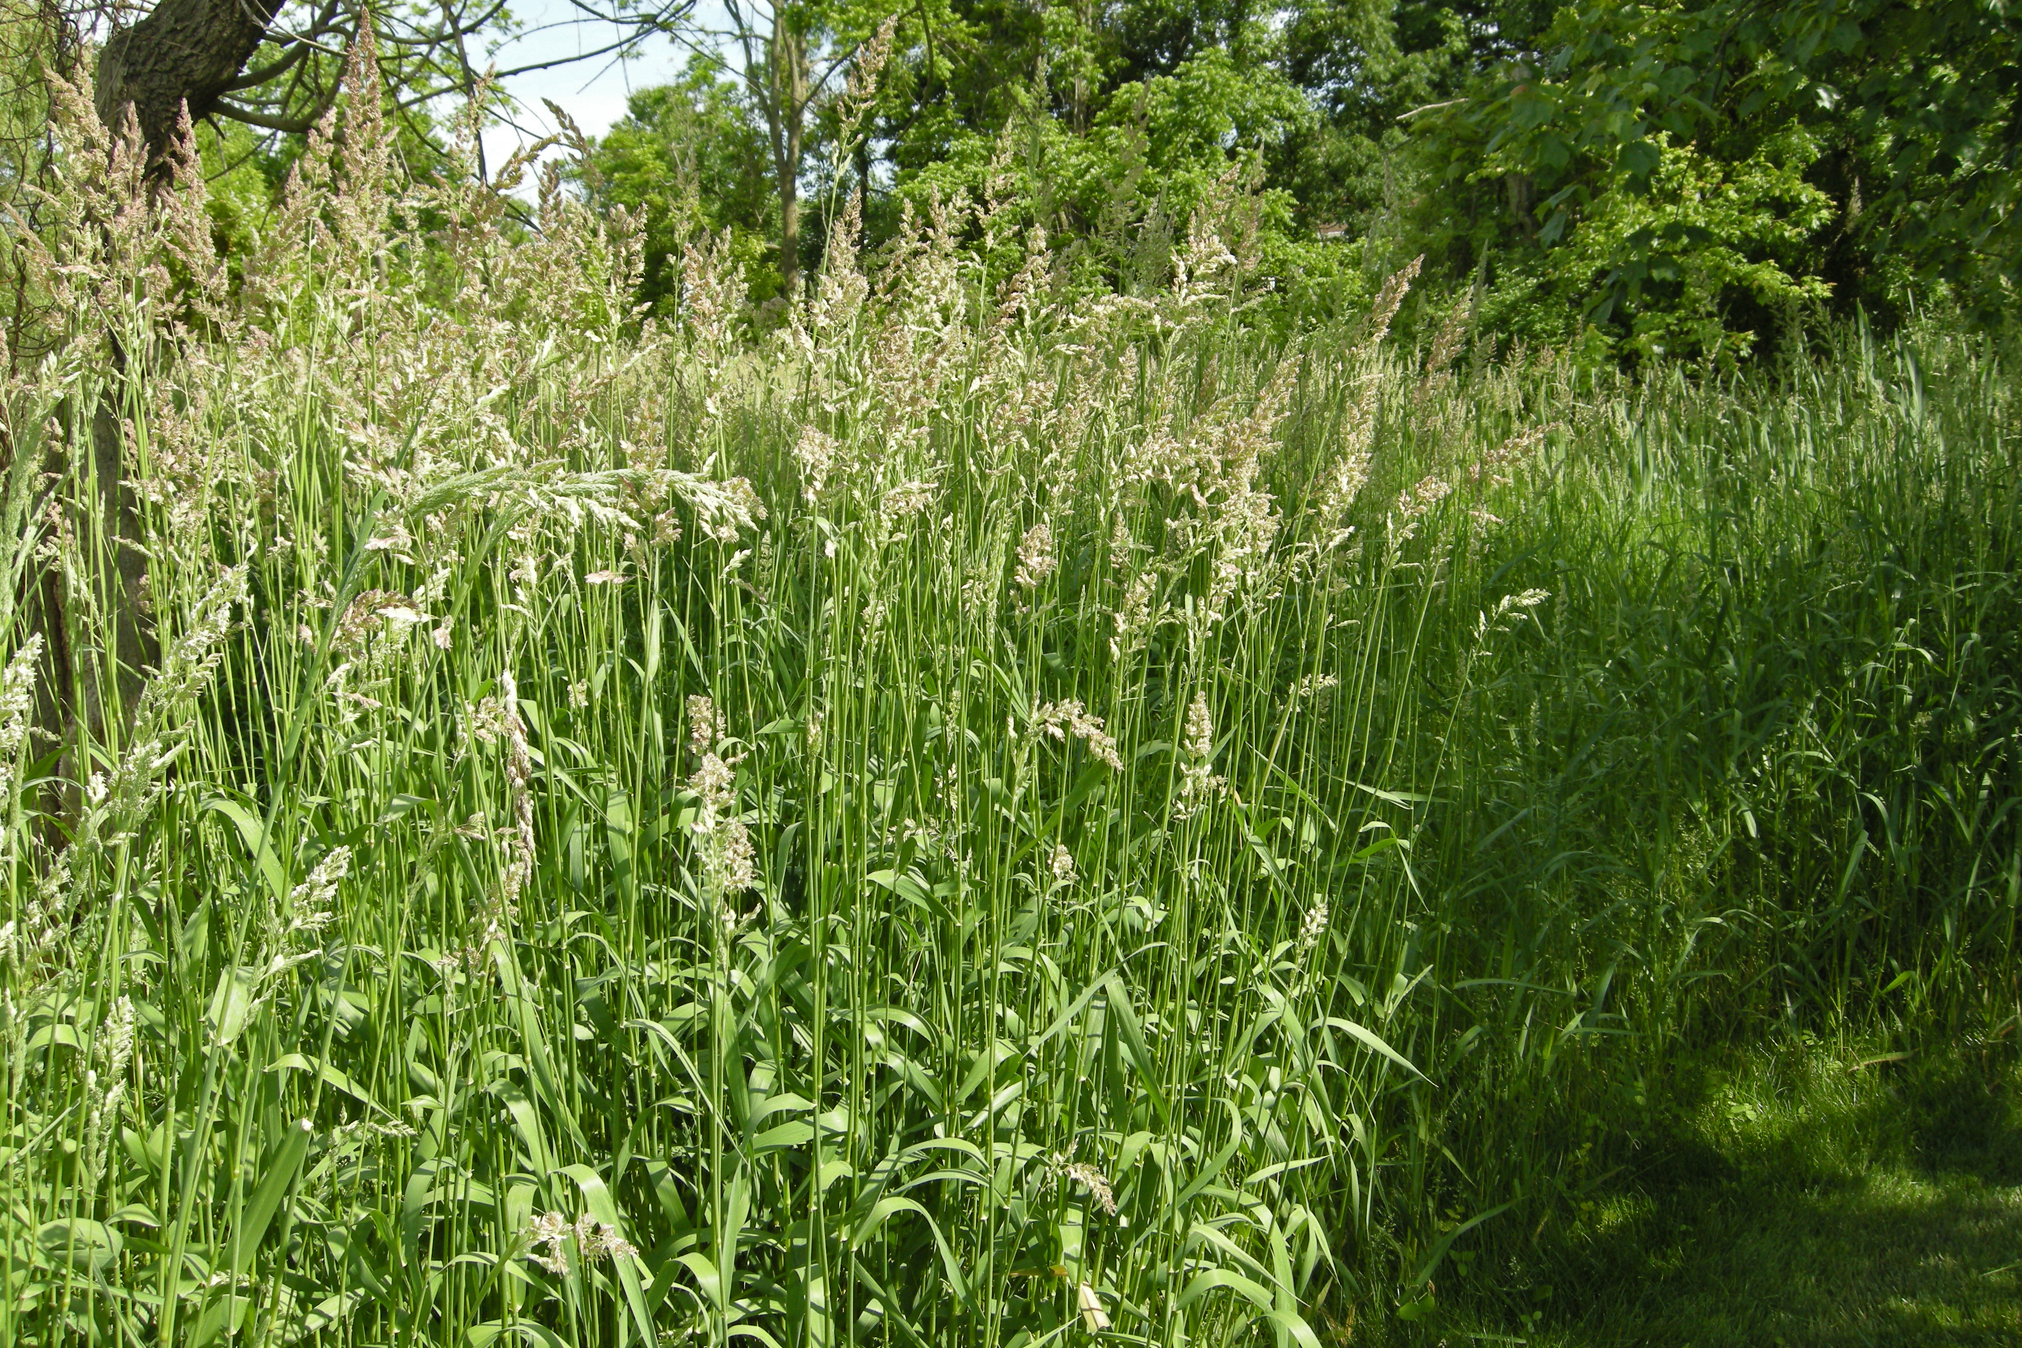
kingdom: Plantae
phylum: Tracheophyta
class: Liliopsida
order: Poales
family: Poaceae
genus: Phalaris
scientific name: Phalaris arundinacea
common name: Reed canary-grass
